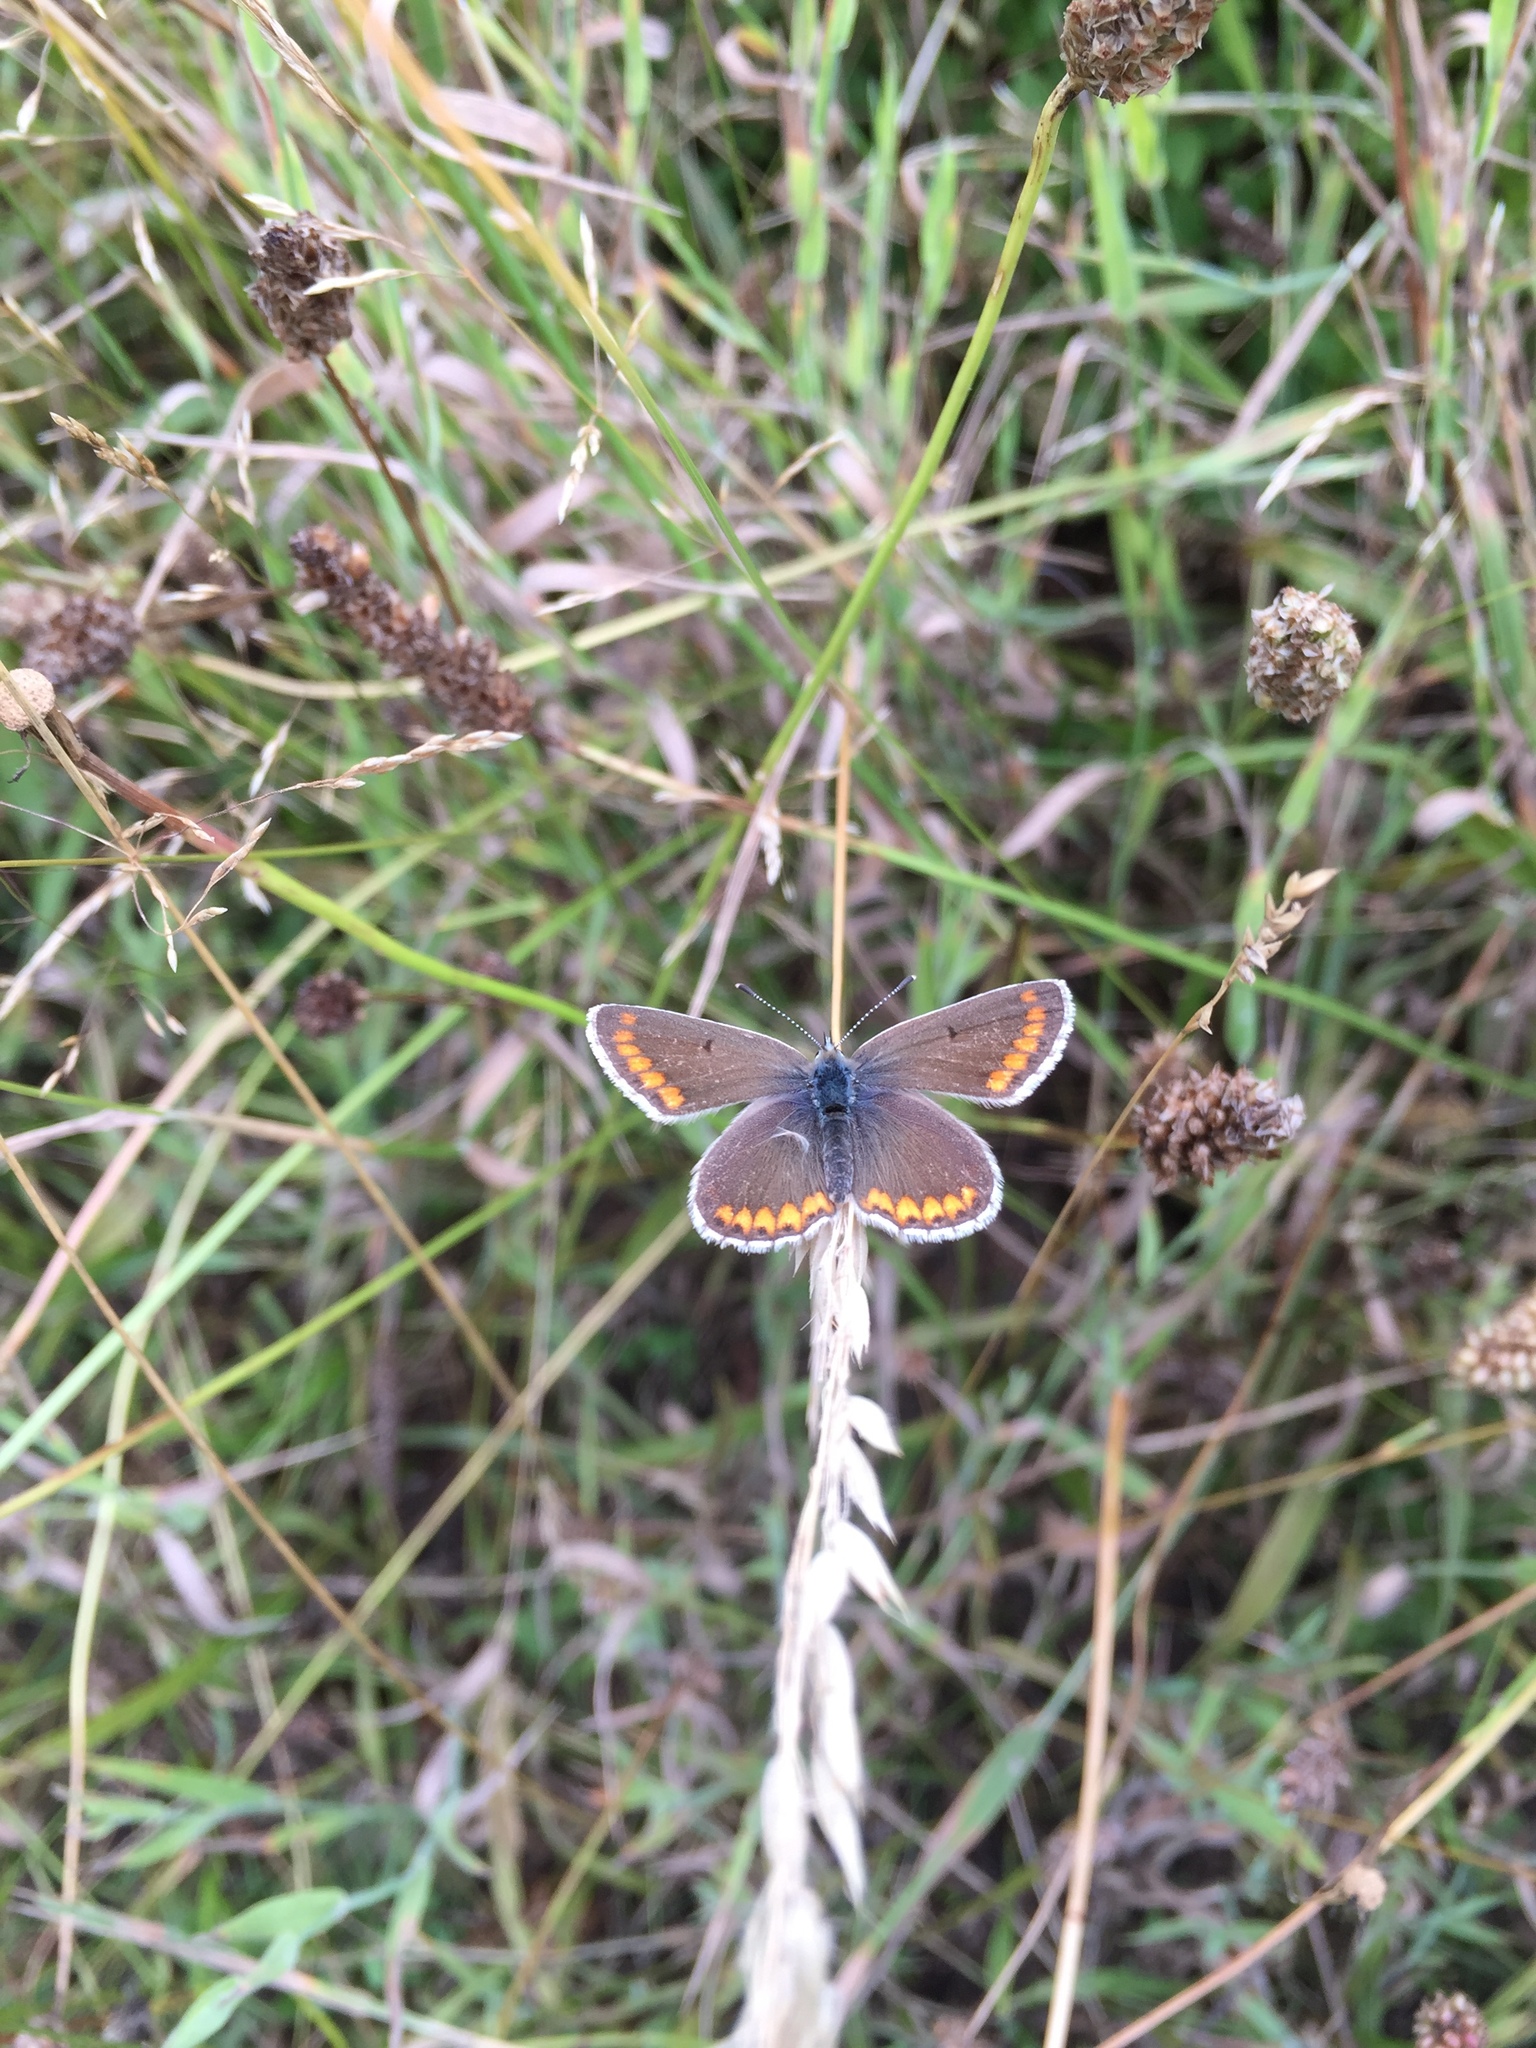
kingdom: Animalia
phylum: Arthropoda
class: Insecta
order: Lepidoptera
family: Lycaenidae
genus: Aricia
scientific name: Aricia agestis
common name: Brown argus
